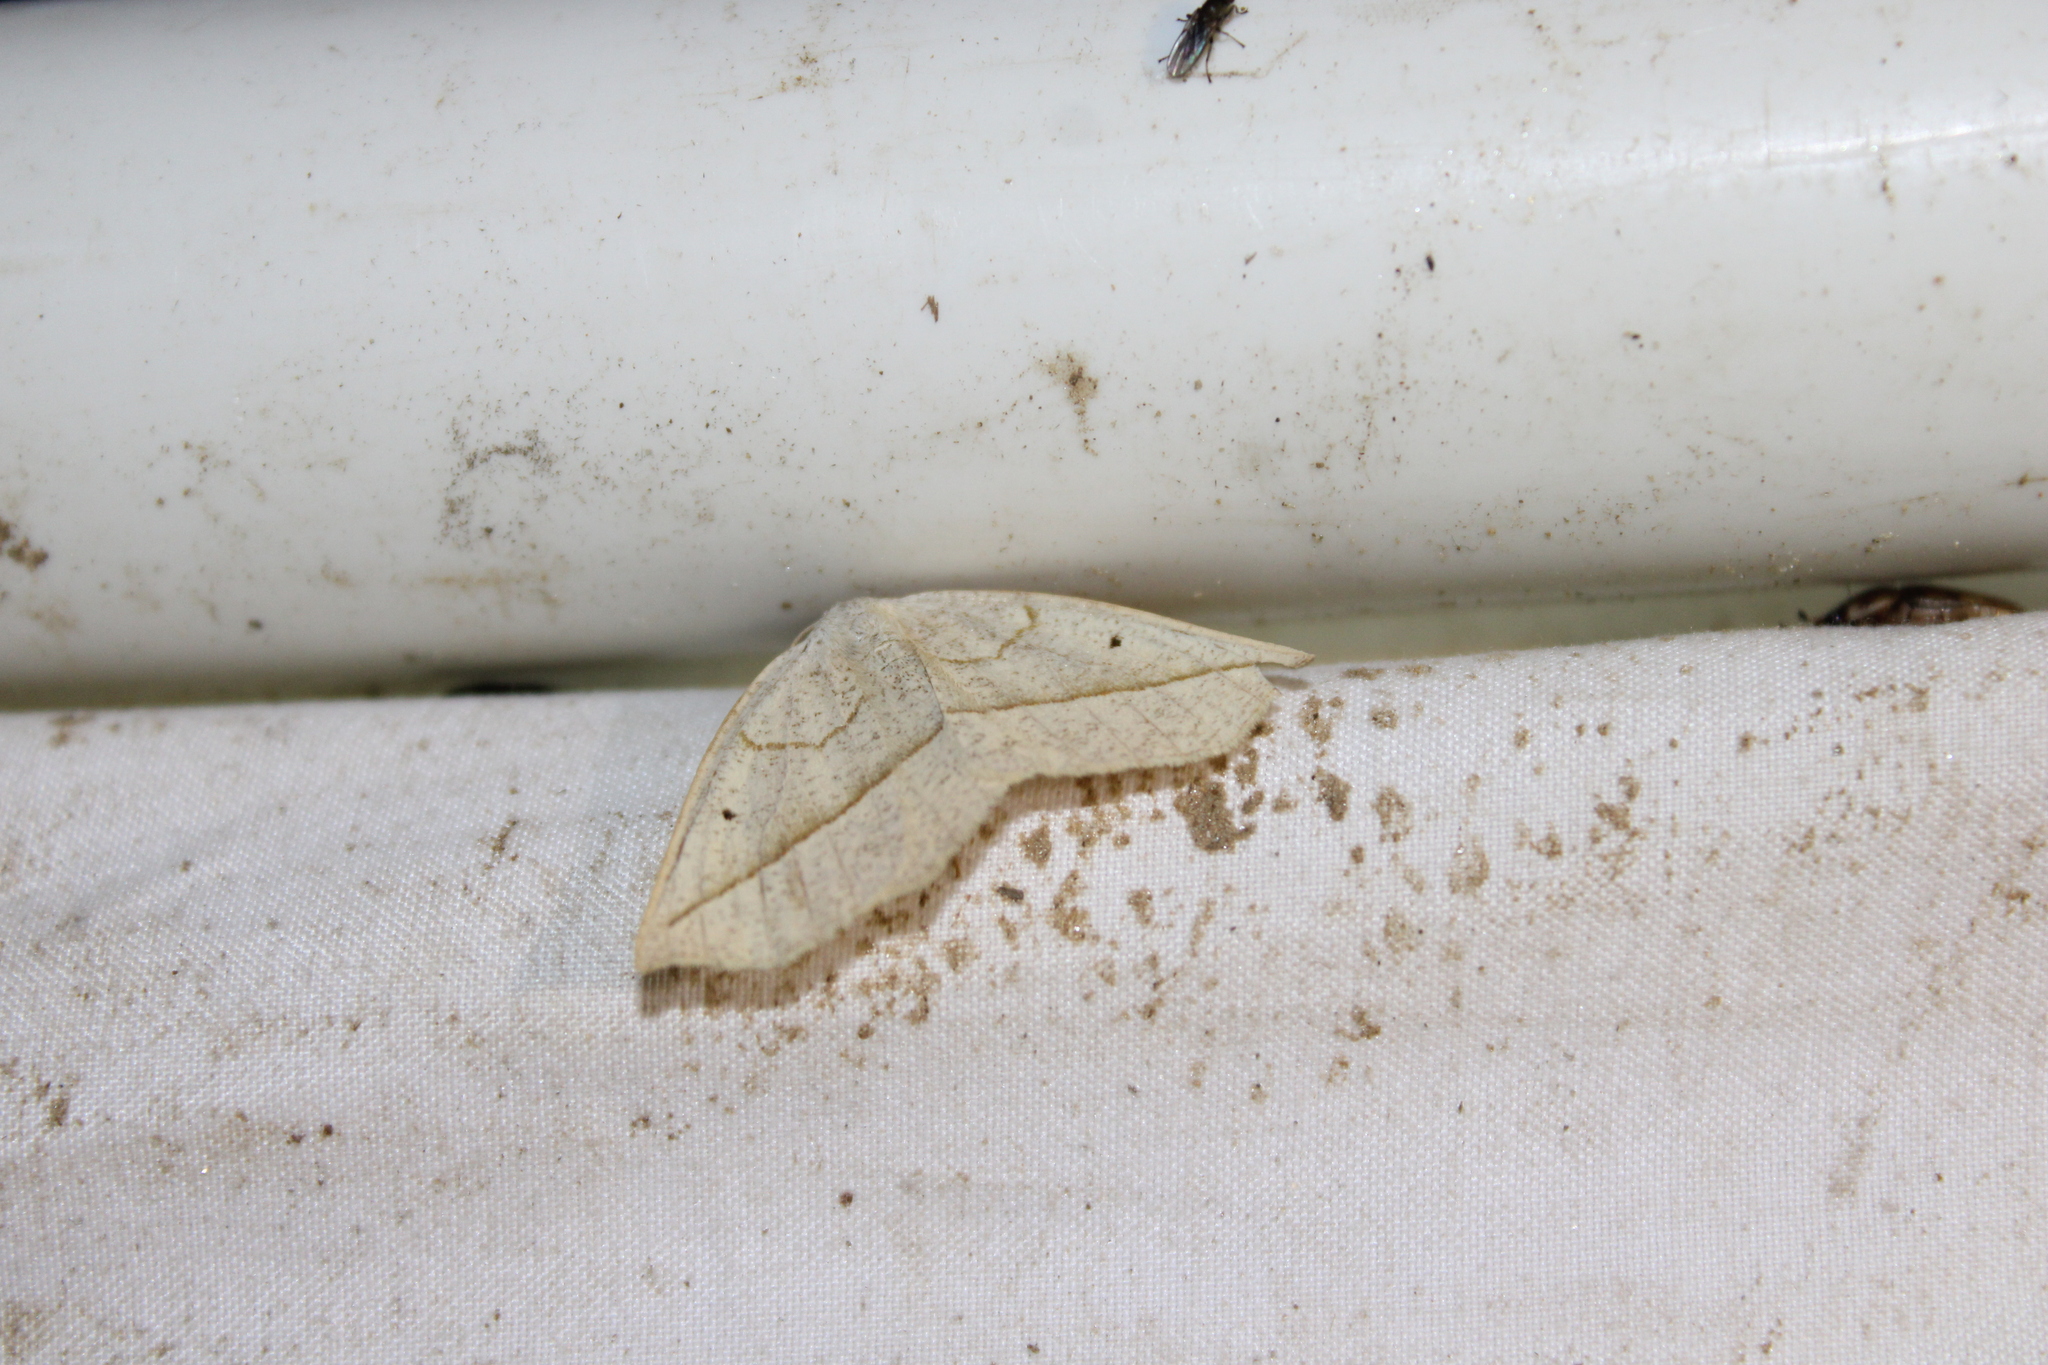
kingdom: Animalia
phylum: Arthropoda
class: Insecta
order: Lepidoptera
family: Geometridae
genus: Eusarca
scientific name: Eusarca confusaria
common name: Confused eusarca
